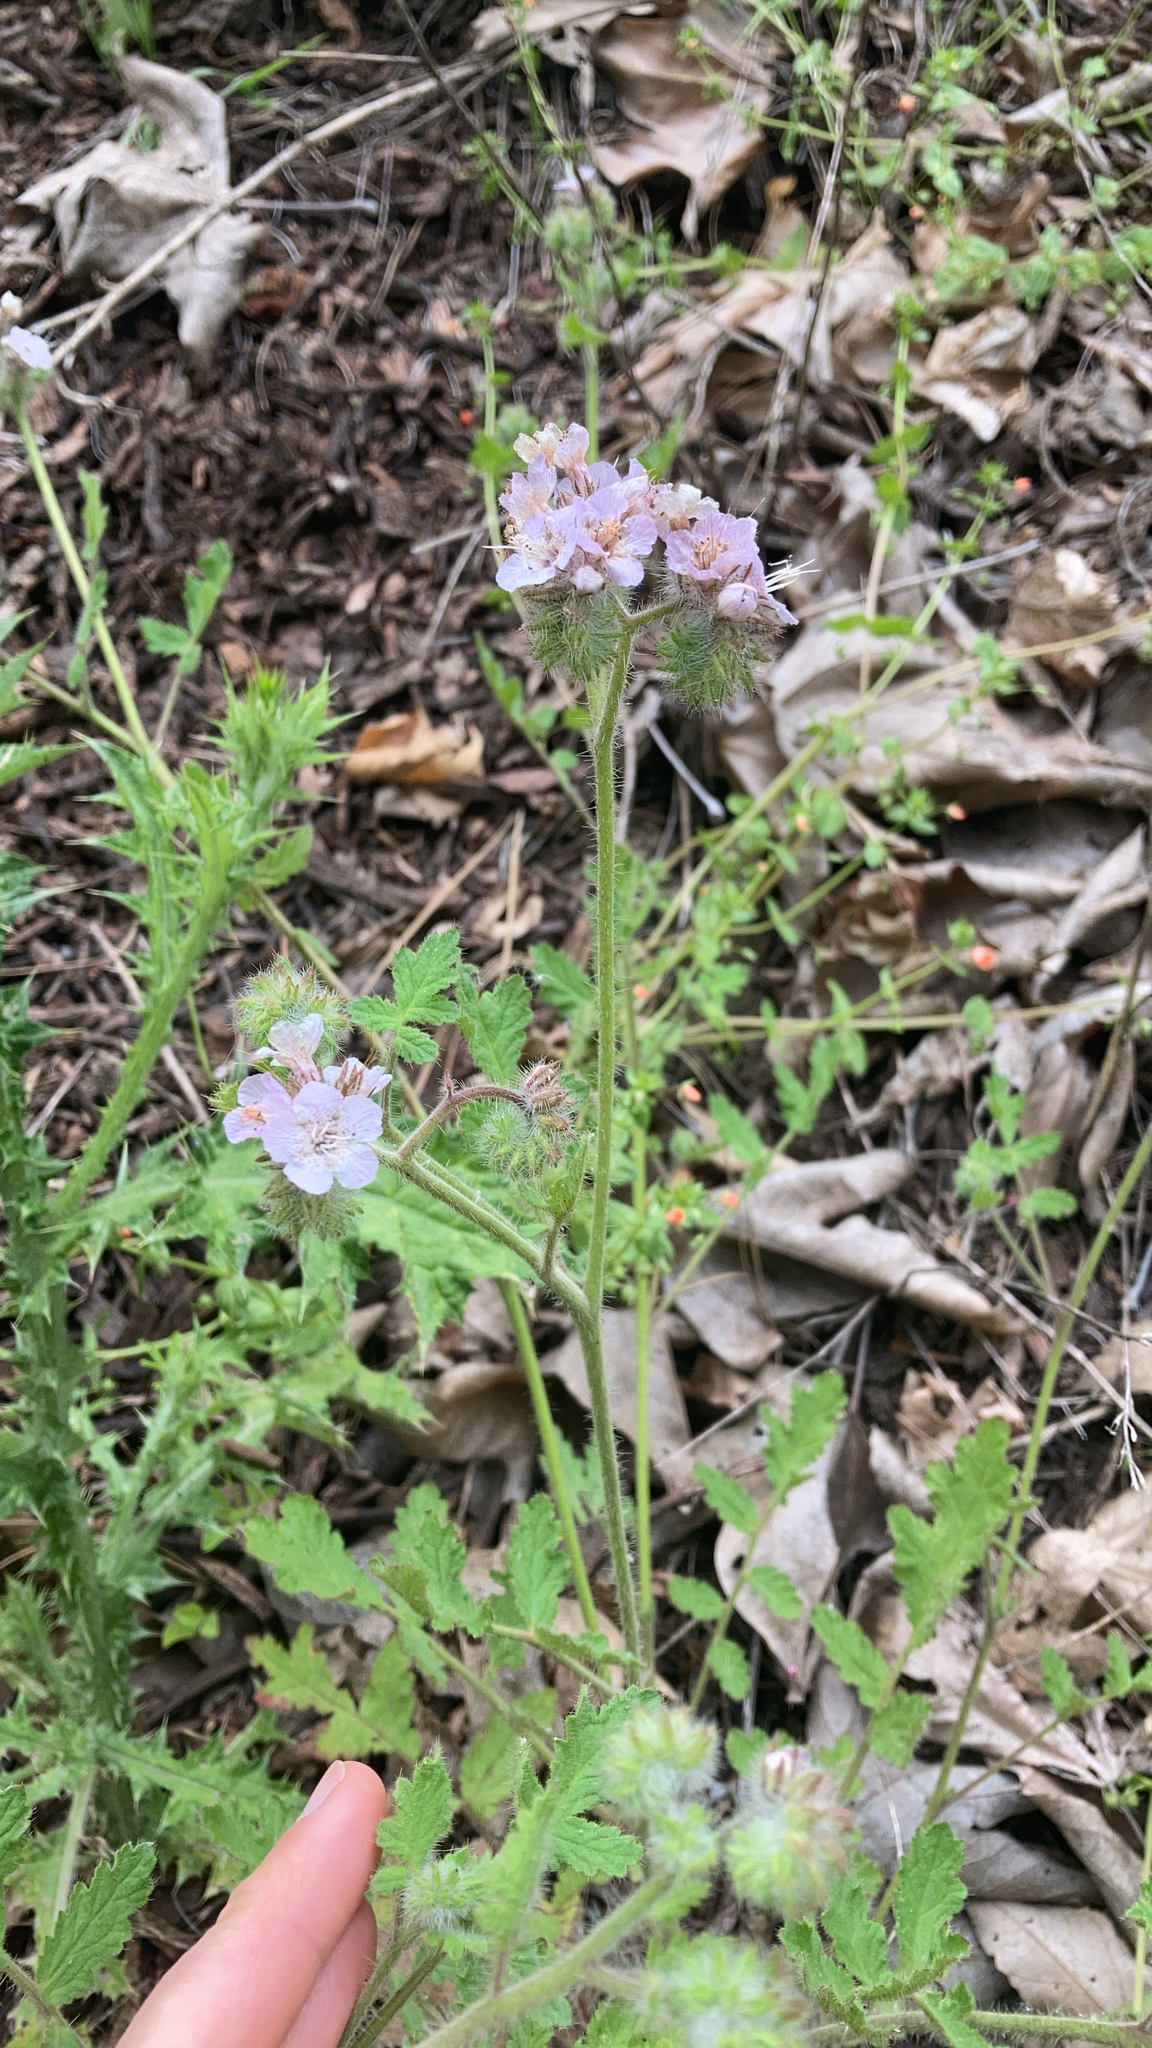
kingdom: Plantae
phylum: Tracheophyta
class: Magnoliopsida
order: Boraginales
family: Hydrophyllaceae
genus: Phacelia
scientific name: Phacelia cicutaria
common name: Caterpillar phacelia
